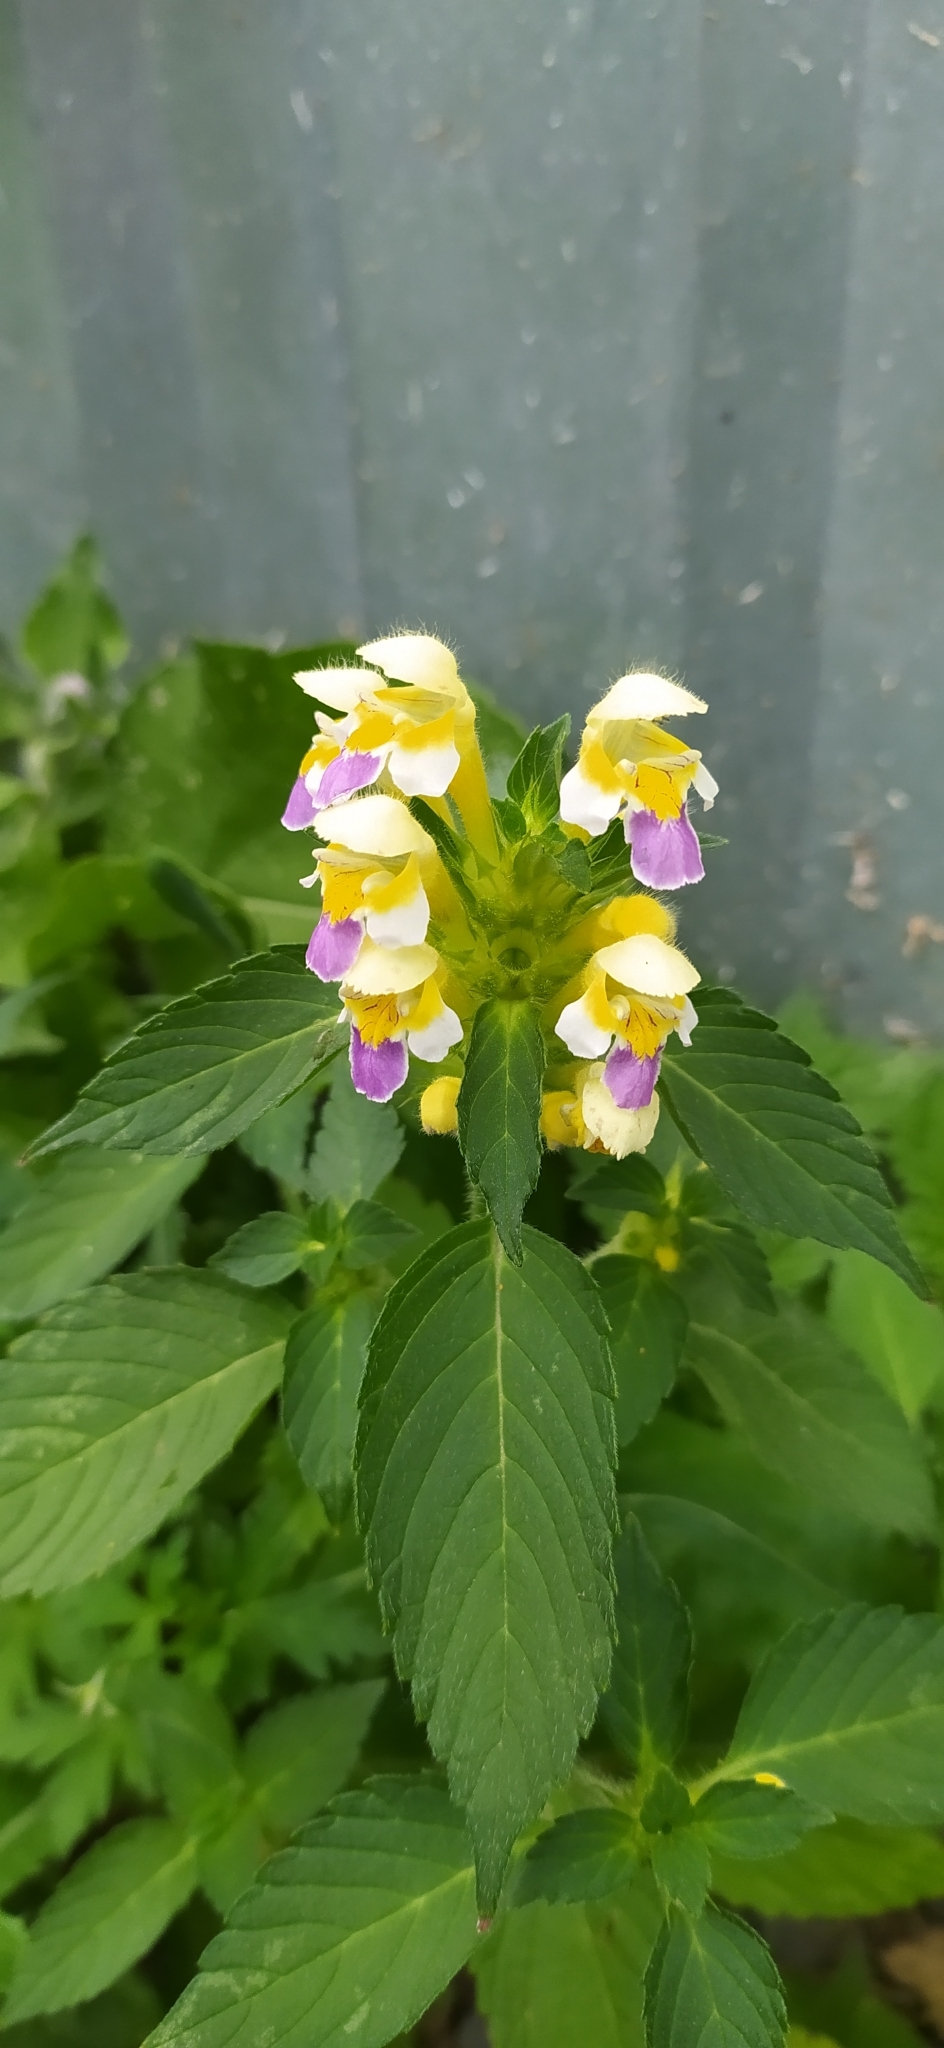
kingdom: Plantae
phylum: Tracheophyta
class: Magnoliopsida
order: Lamiales
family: Lamiaceae
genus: Galeopsis
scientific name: Galeopsis speciosa
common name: Large-flowered hemp-nettle
